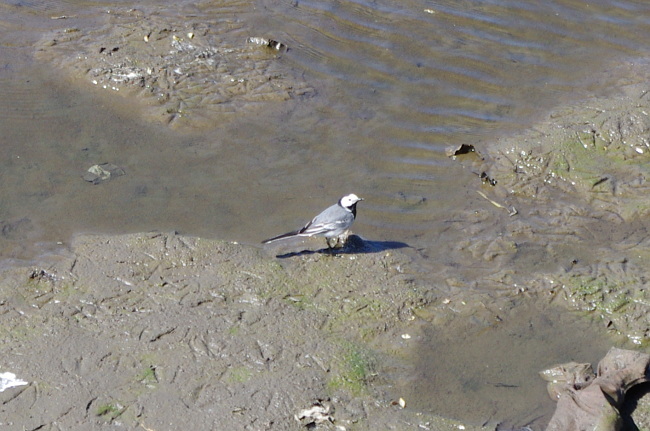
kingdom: Animalia
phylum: Chordata
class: Aves
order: Passeriformes
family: Motacillidae
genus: Motacilla
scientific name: Motacilla alba
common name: White wagtail
